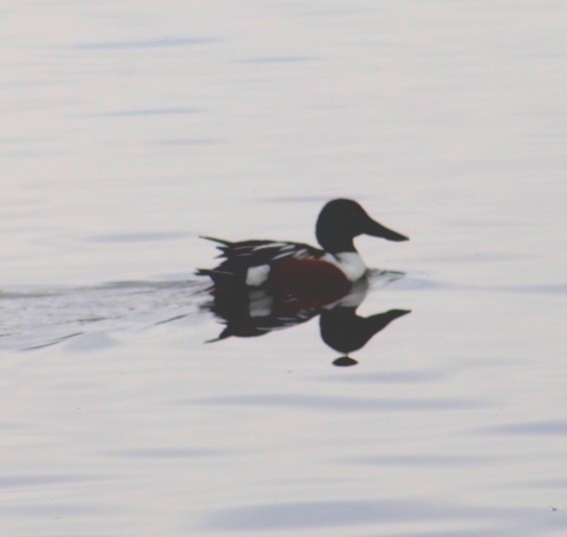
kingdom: Animalia
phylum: Chordata
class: Aves
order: Anseriformes
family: Anatidae
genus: Spatula
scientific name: Spatula clypeata
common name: Northern shoveler
